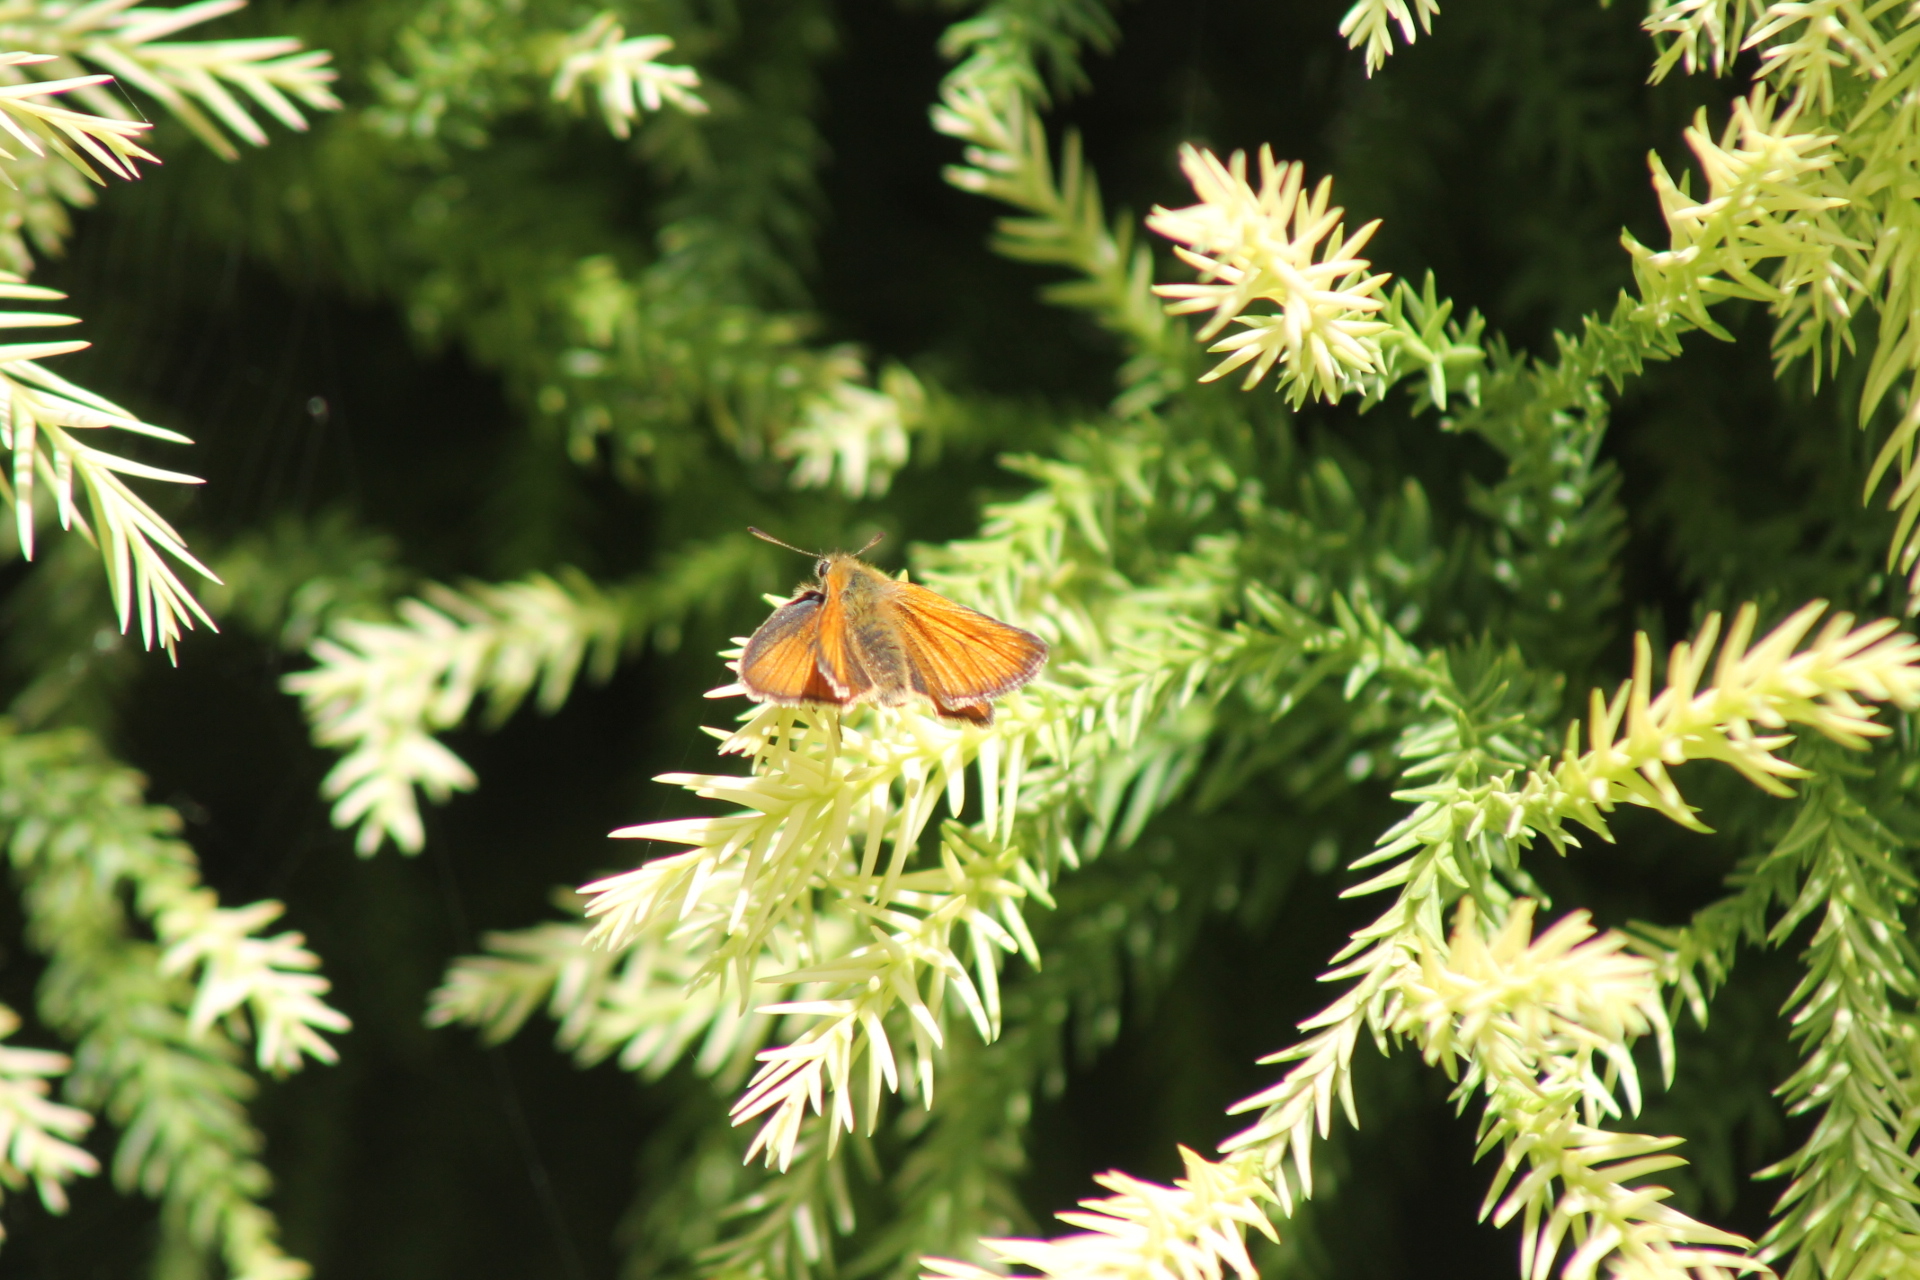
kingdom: Animalia
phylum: Arthropoda
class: Insecta
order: Lepidoptera
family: Hesperiidae
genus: Thymelicus
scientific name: Thymelicus sylvestris
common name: Small skipper
